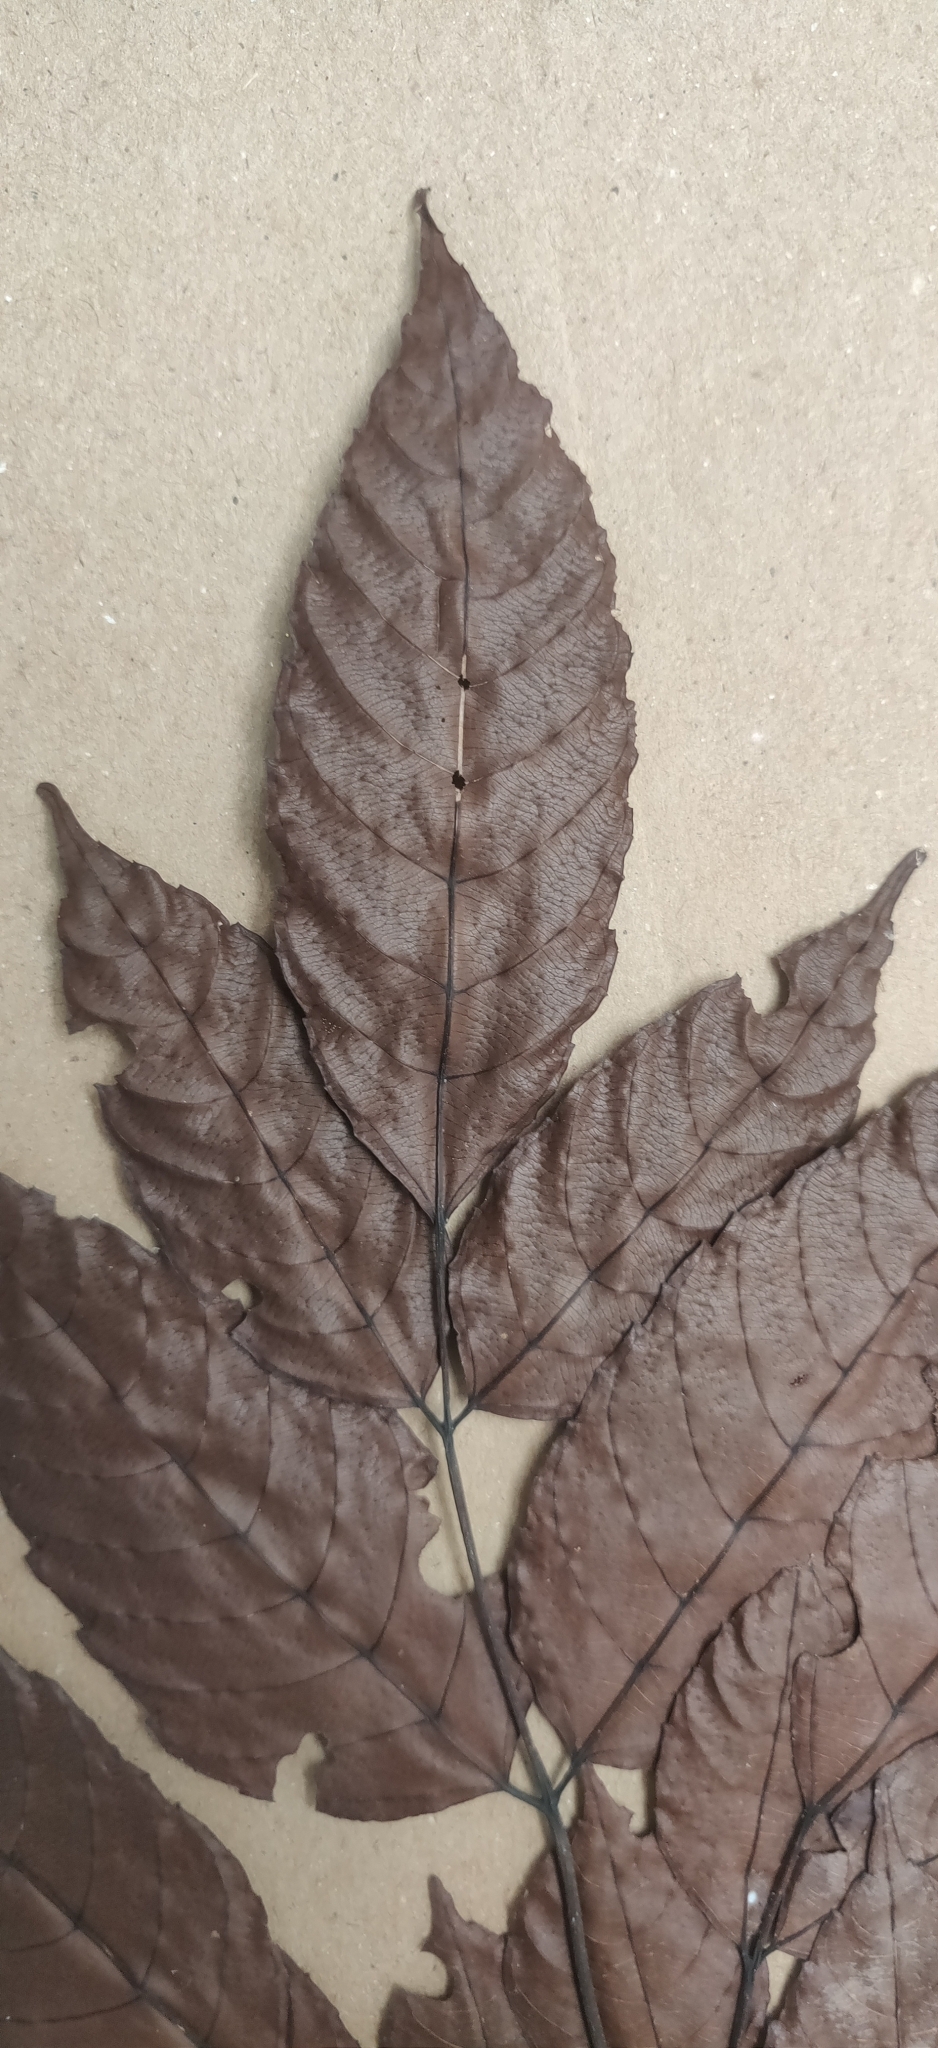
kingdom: Plantae
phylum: Tracheophyta
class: Magnoliopsida
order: Vitales
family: Vitaceae
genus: Leea
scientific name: Leea indica
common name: Bandicoot-berry
